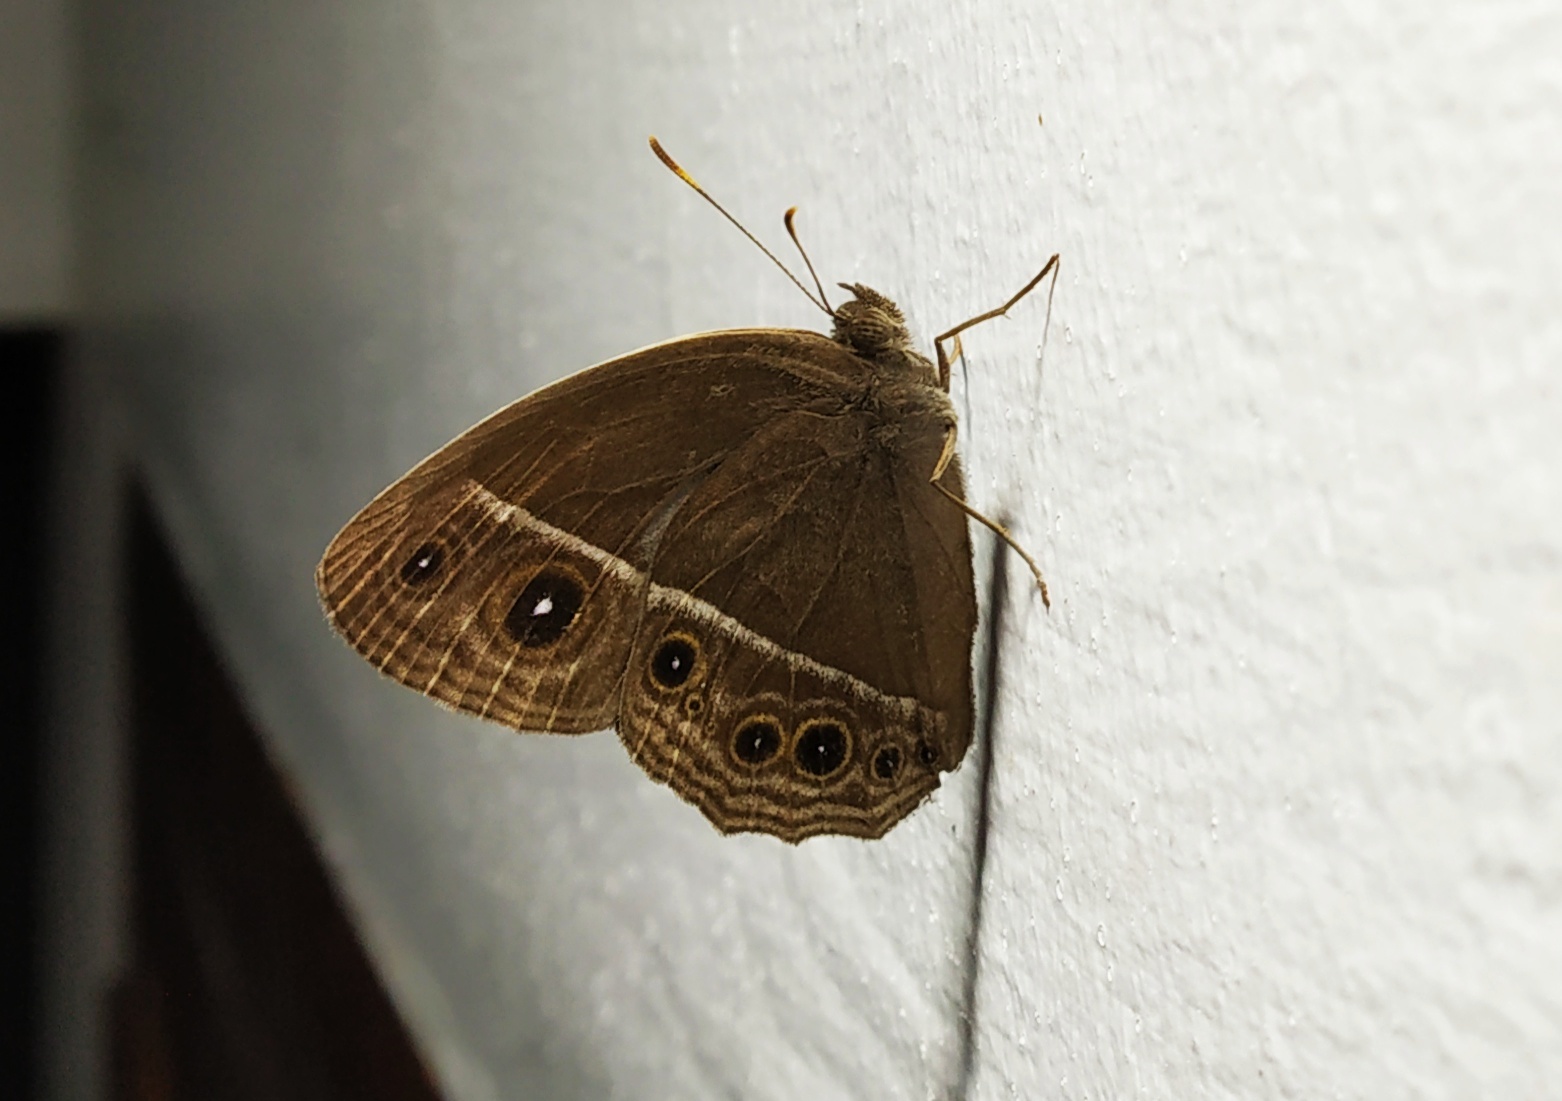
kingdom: Animalia
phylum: Arthropoda
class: Insecta
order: Lepidoptera
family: Nymphalidae
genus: Mycalesis
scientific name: Mycalesis mineus
